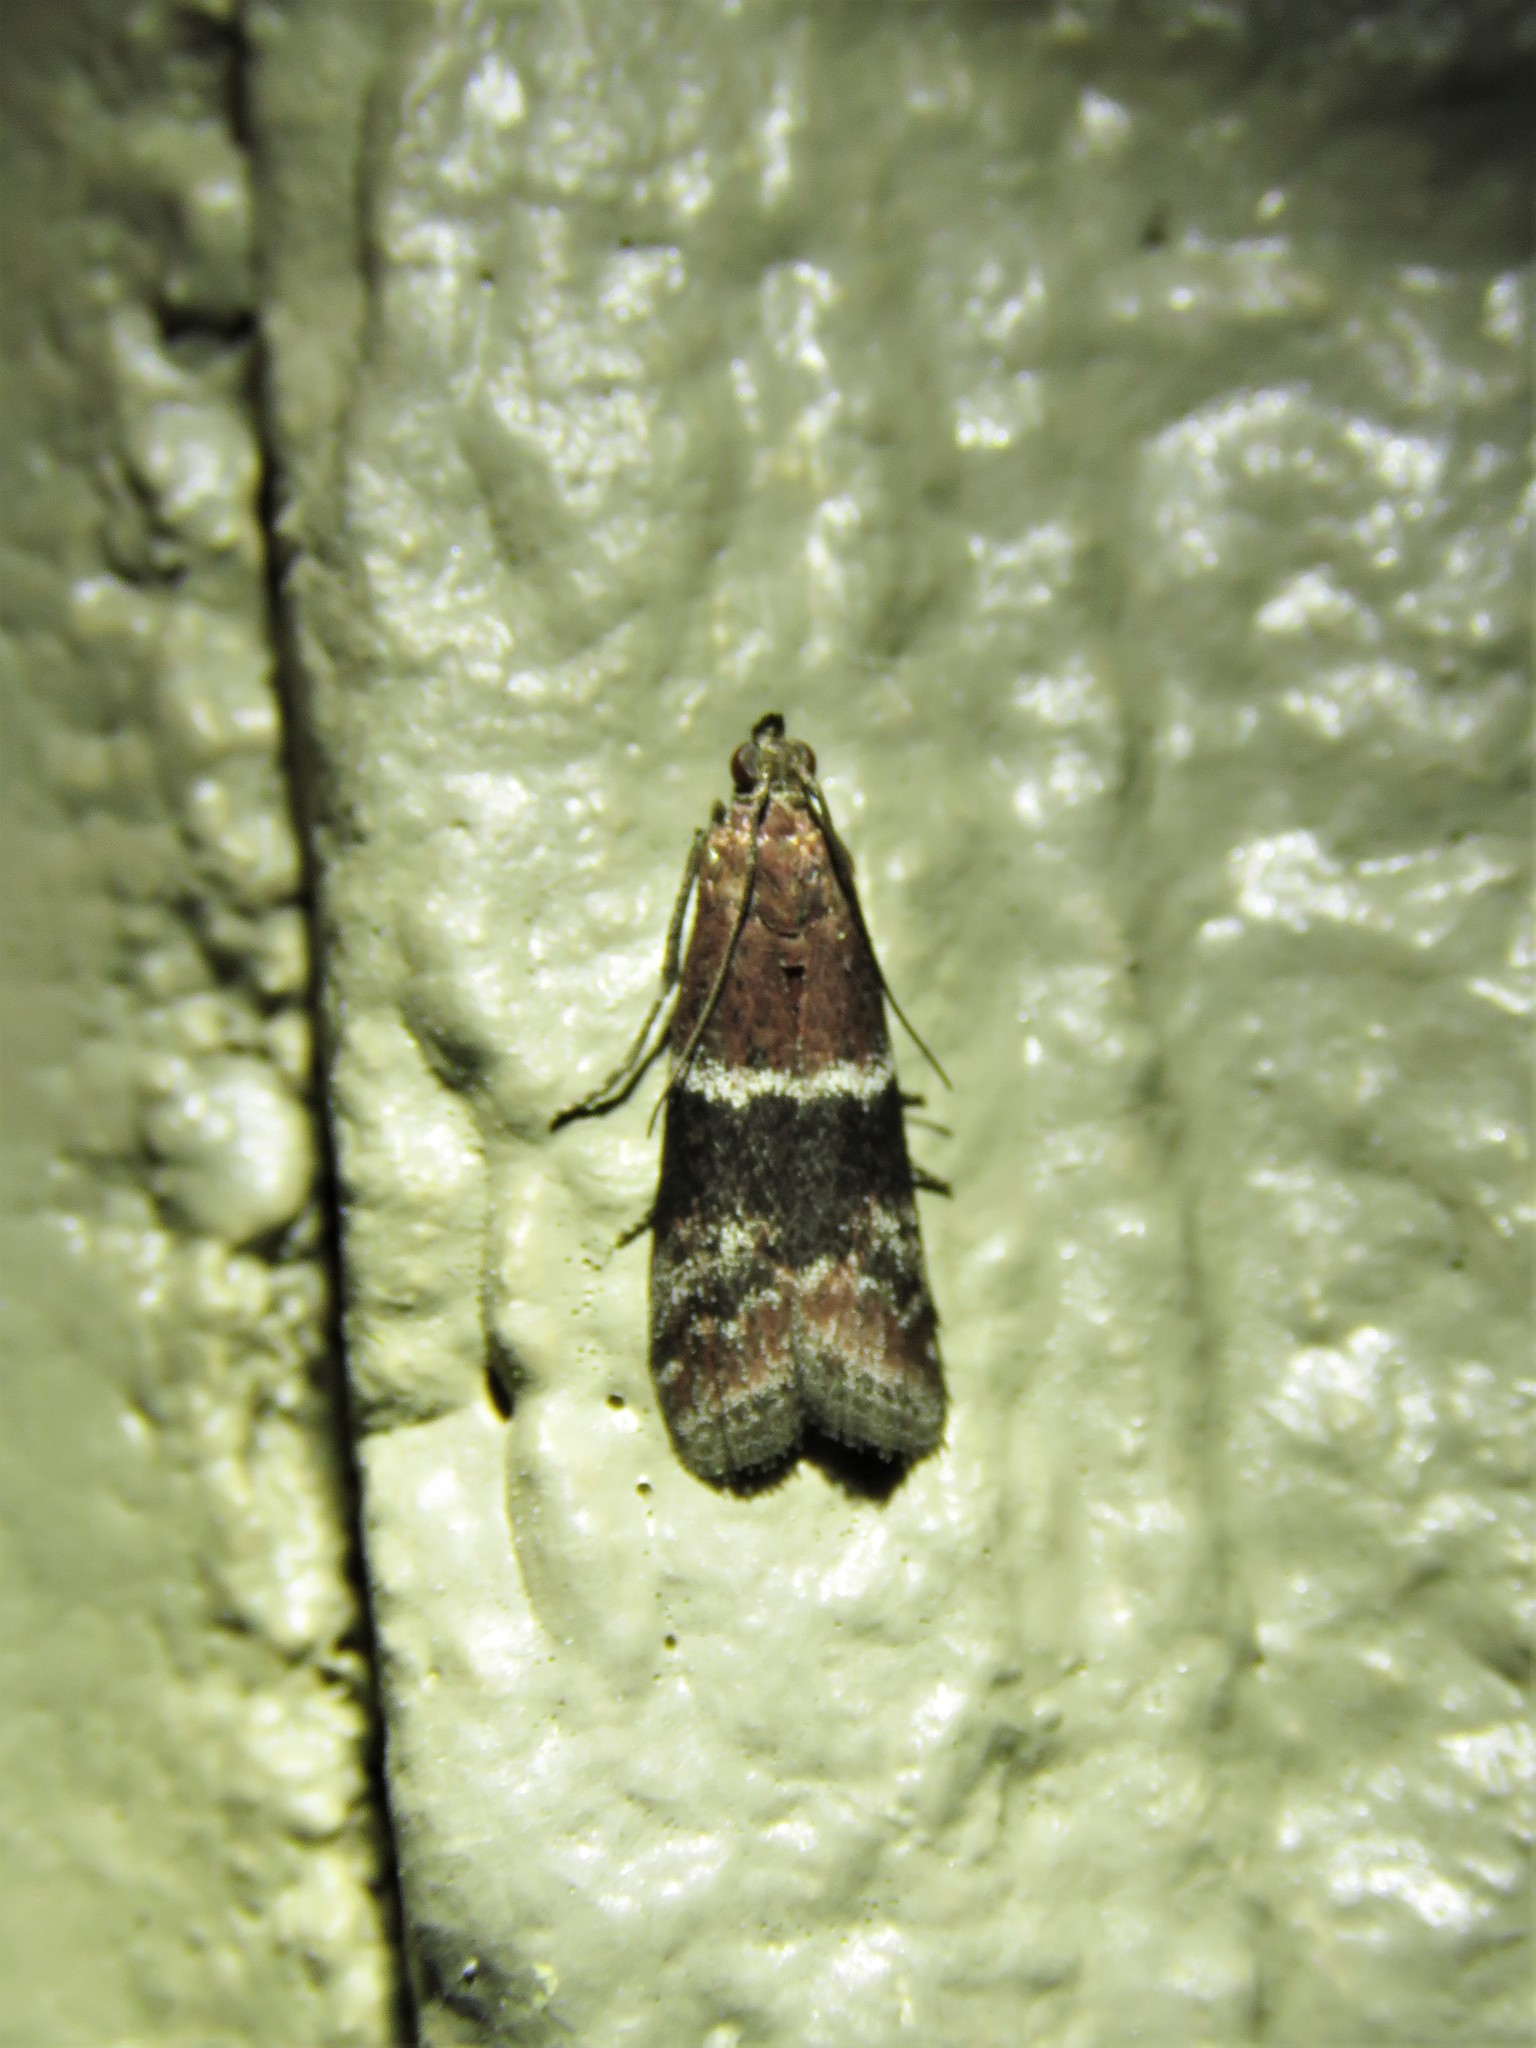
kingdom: Animalia
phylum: Arthropoda
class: Insecta
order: Lepidoptera
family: Pyralidae
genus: Moodna
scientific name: Moodna ostrinella
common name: Darker moodna moth
